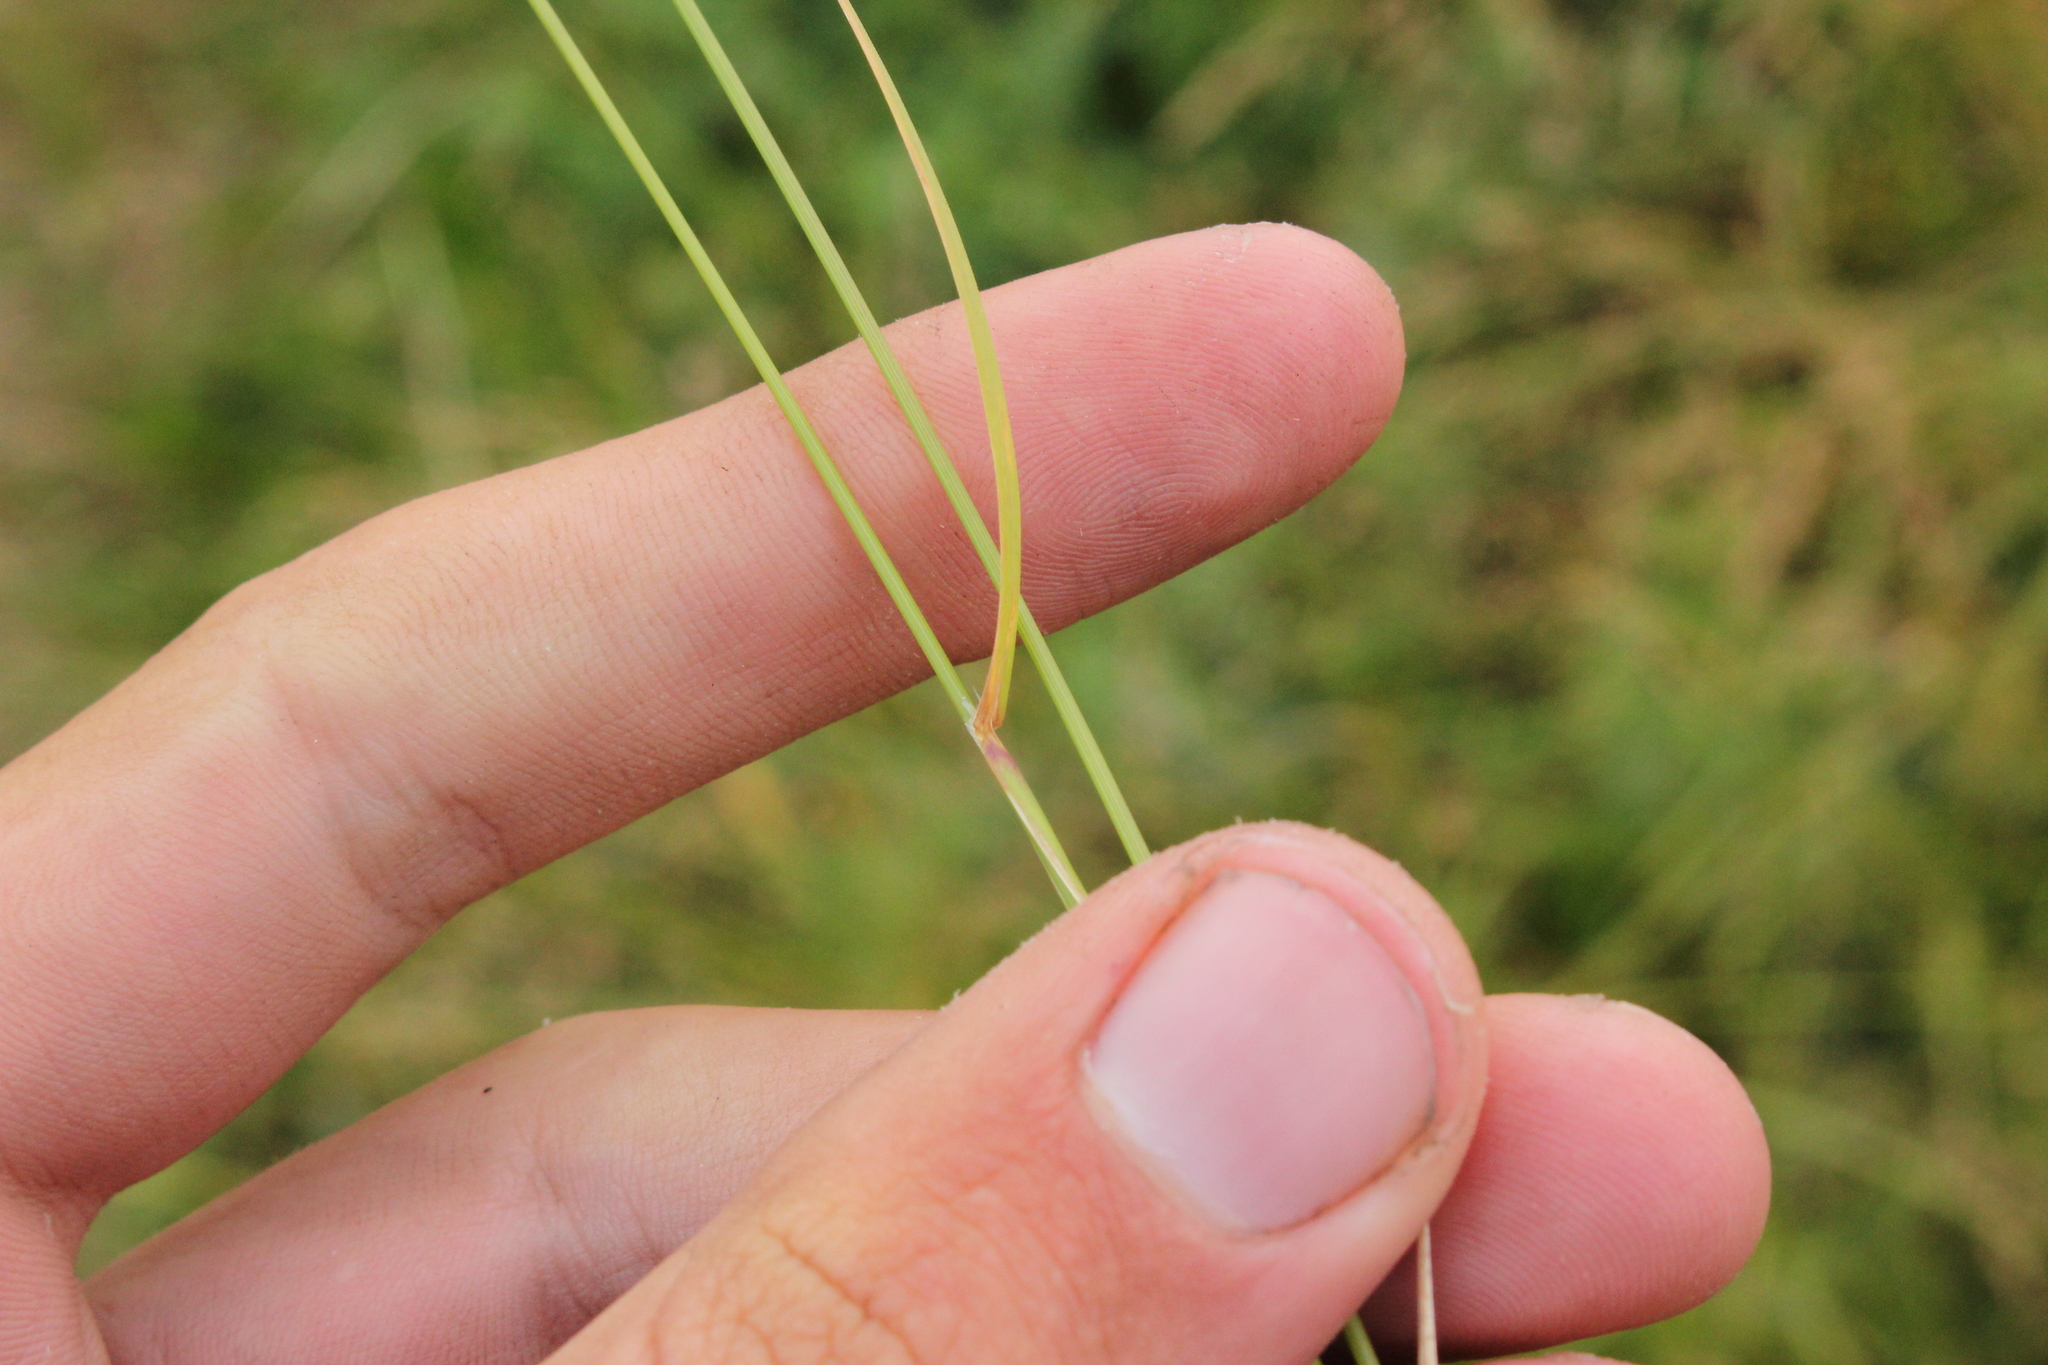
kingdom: Plantae
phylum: Tracheophyta
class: Liliopsida
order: Poales
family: Poaceae
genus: Poa
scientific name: Poa palustris
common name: Swamp meadow-grass
